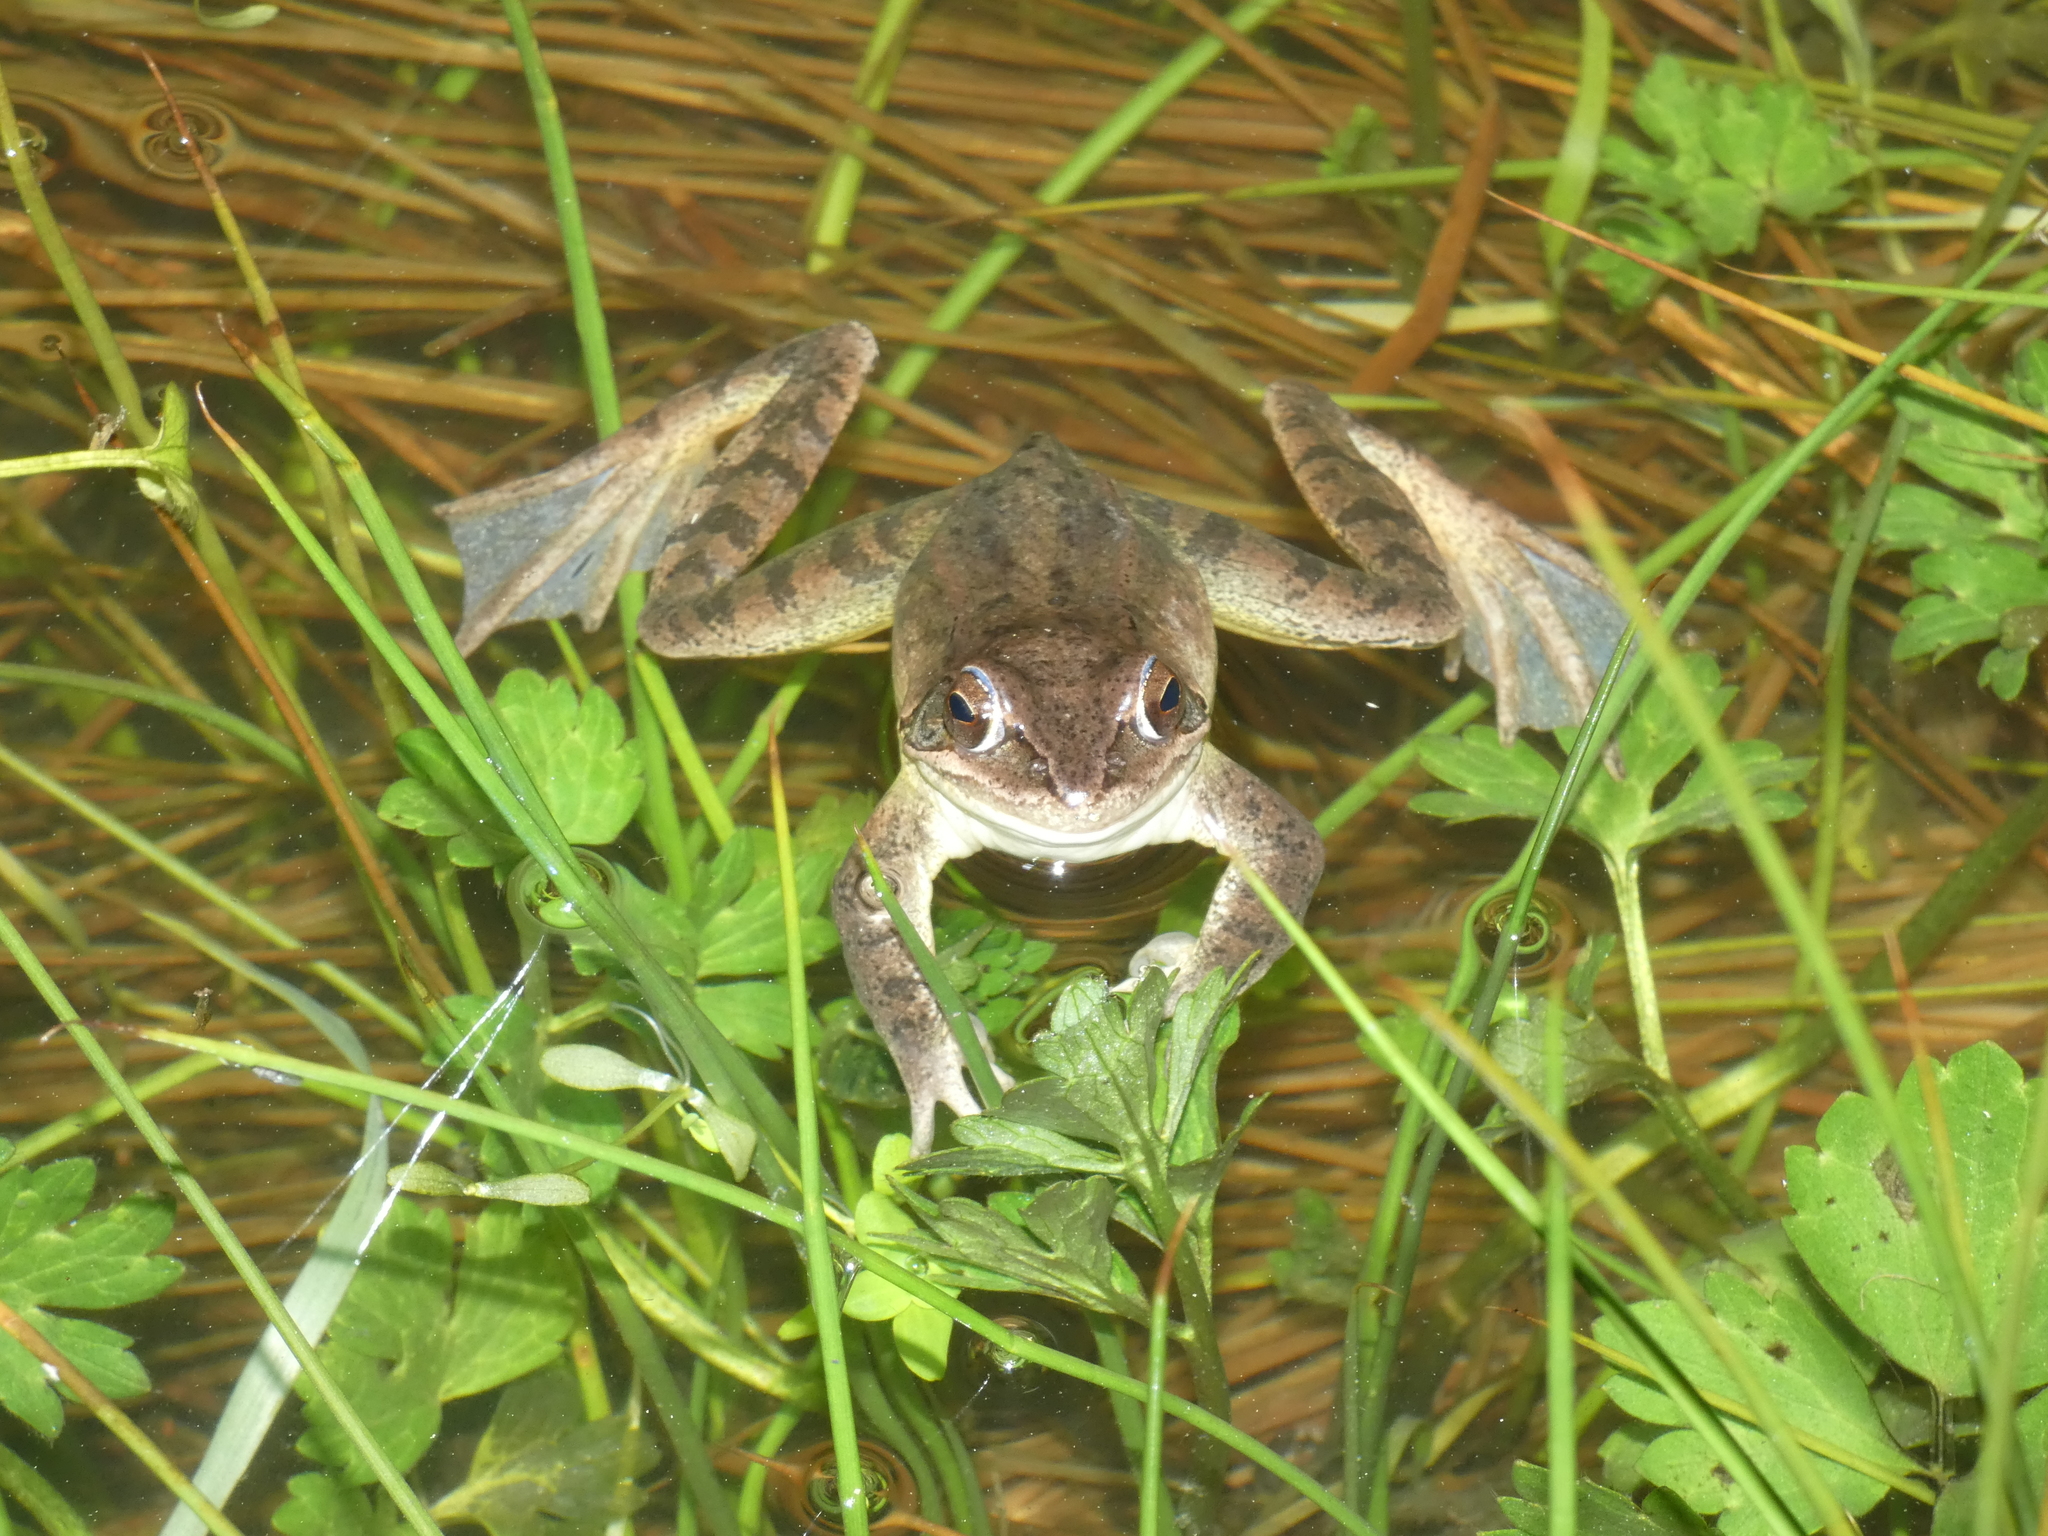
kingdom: Animalia
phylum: Chordata
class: Amphibia
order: Anura
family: Ranidae
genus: Rana
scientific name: Rana dalmatina
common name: Agile frog
